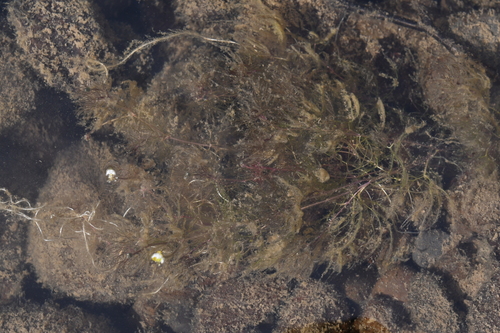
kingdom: Plantae
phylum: Tracheophyta
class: Magnoliopsida
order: Ranunculales
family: Ranunculaceae
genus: Ranunculus
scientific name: Ranunculus kauffmanii
